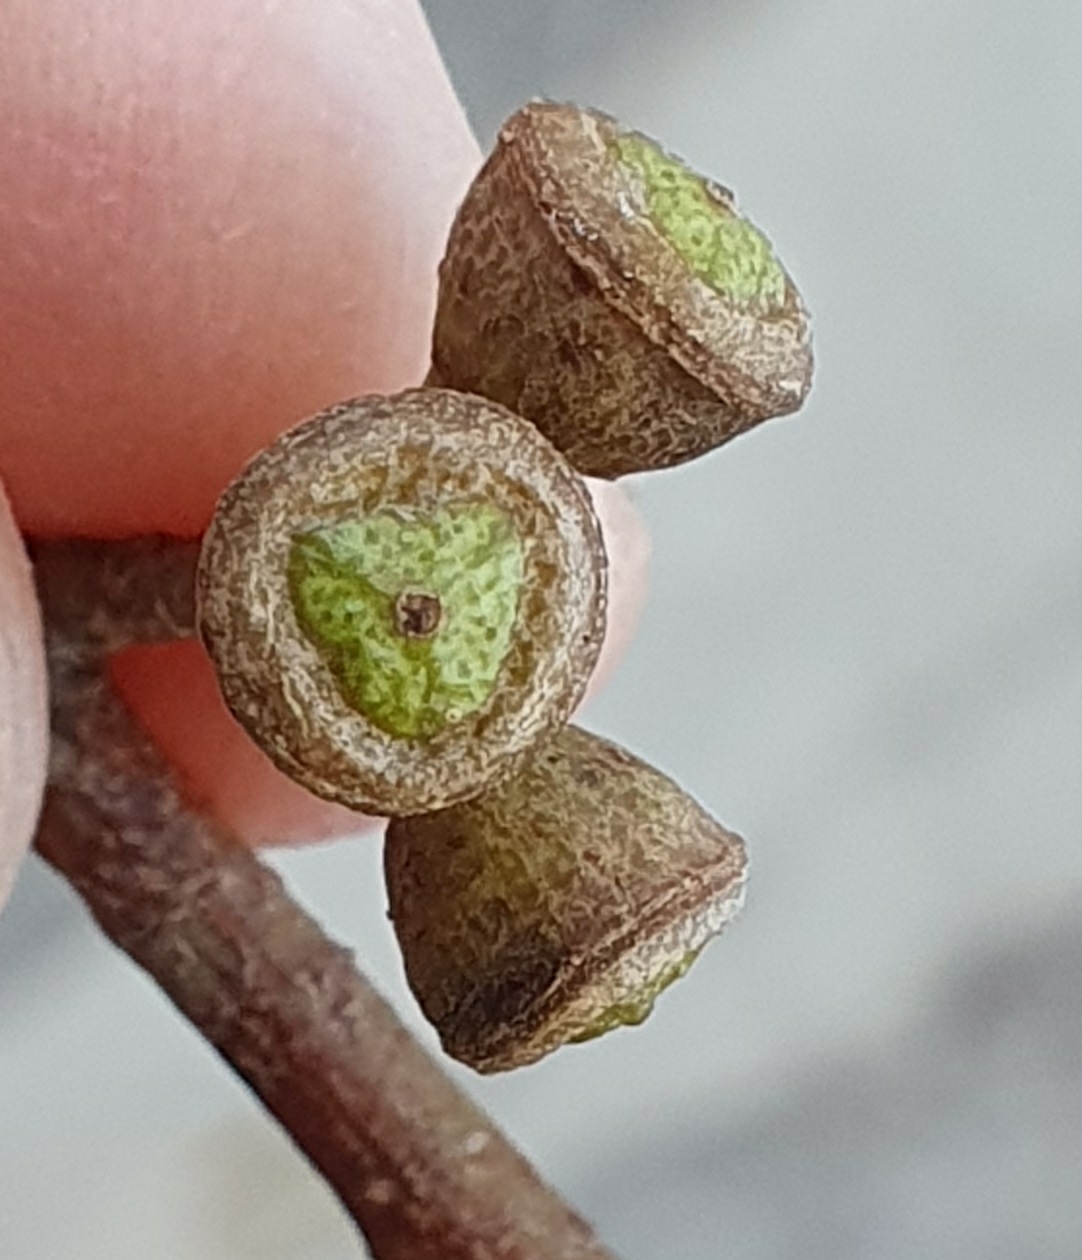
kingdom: Plantae
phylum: Tracheophyta
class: Magnoliopsida
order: Myrtales
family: Myrtaceae
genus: Eucalyptus
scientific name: Eucalyptus mannifera
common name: Manna gum
